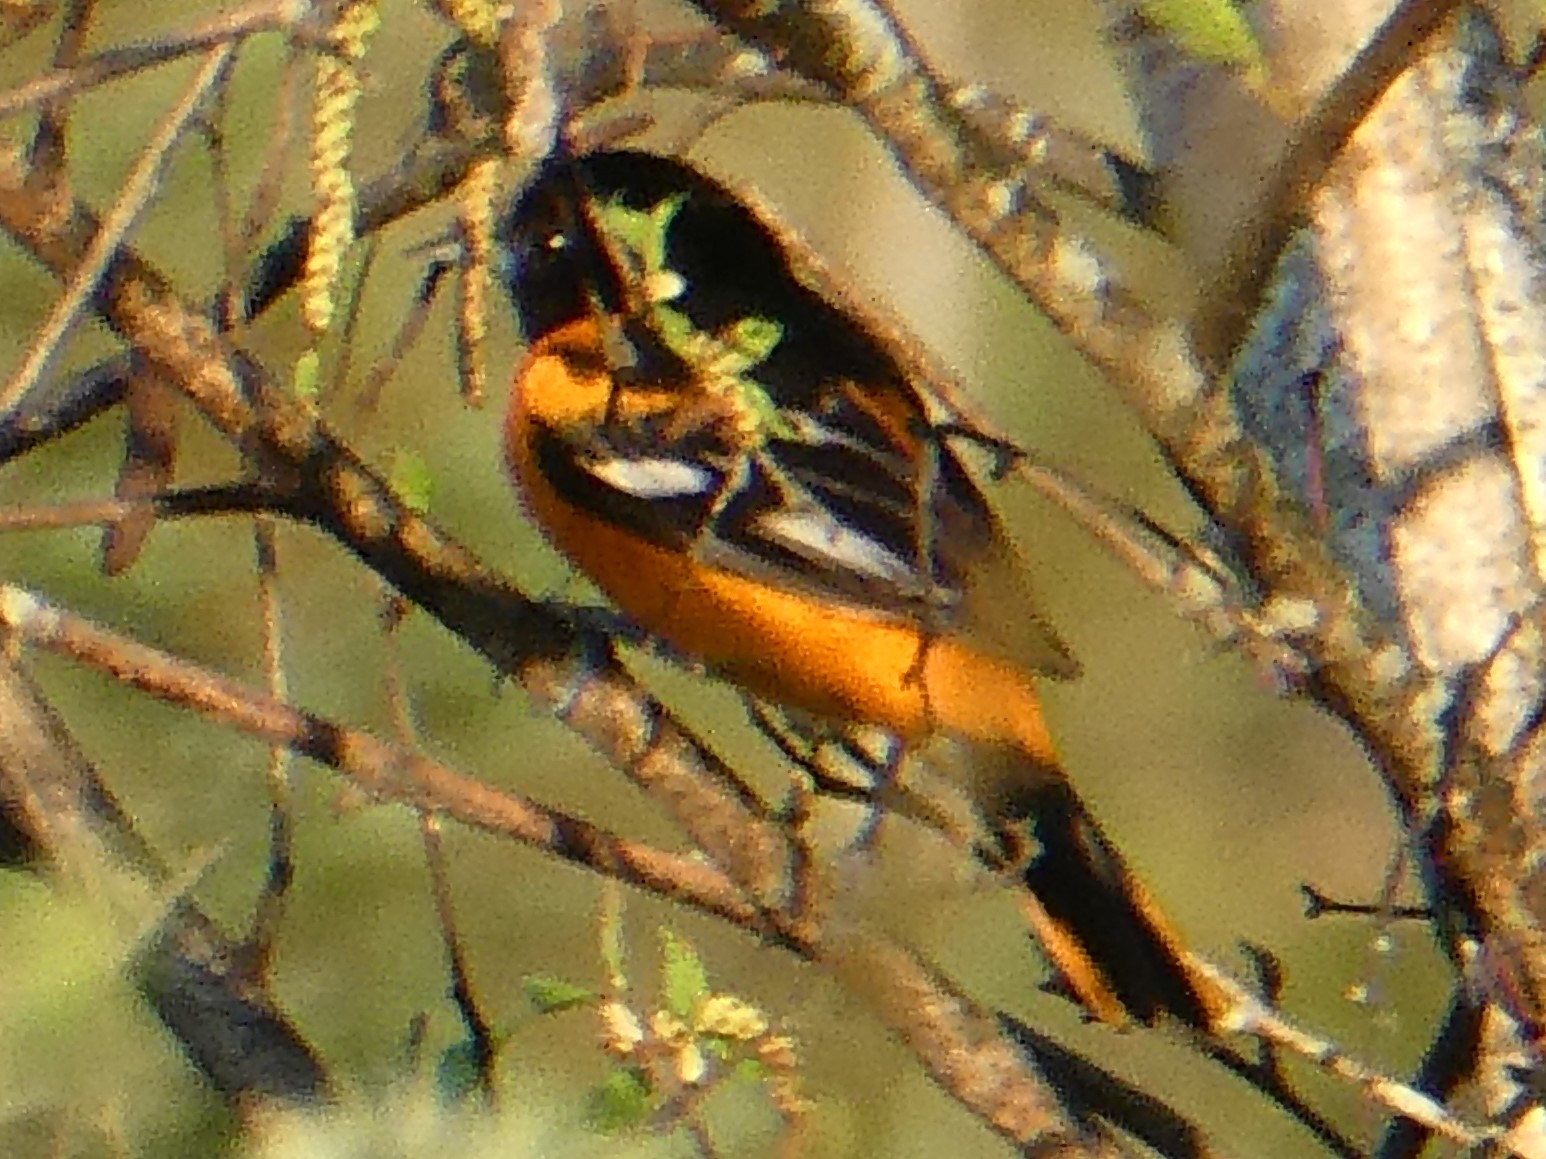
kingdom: Animalia
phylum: Chordata
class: Aves
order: Passeriformes
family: Icteridae
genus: Icterus
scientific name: Icterus galbula
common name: Baltimore oriole
